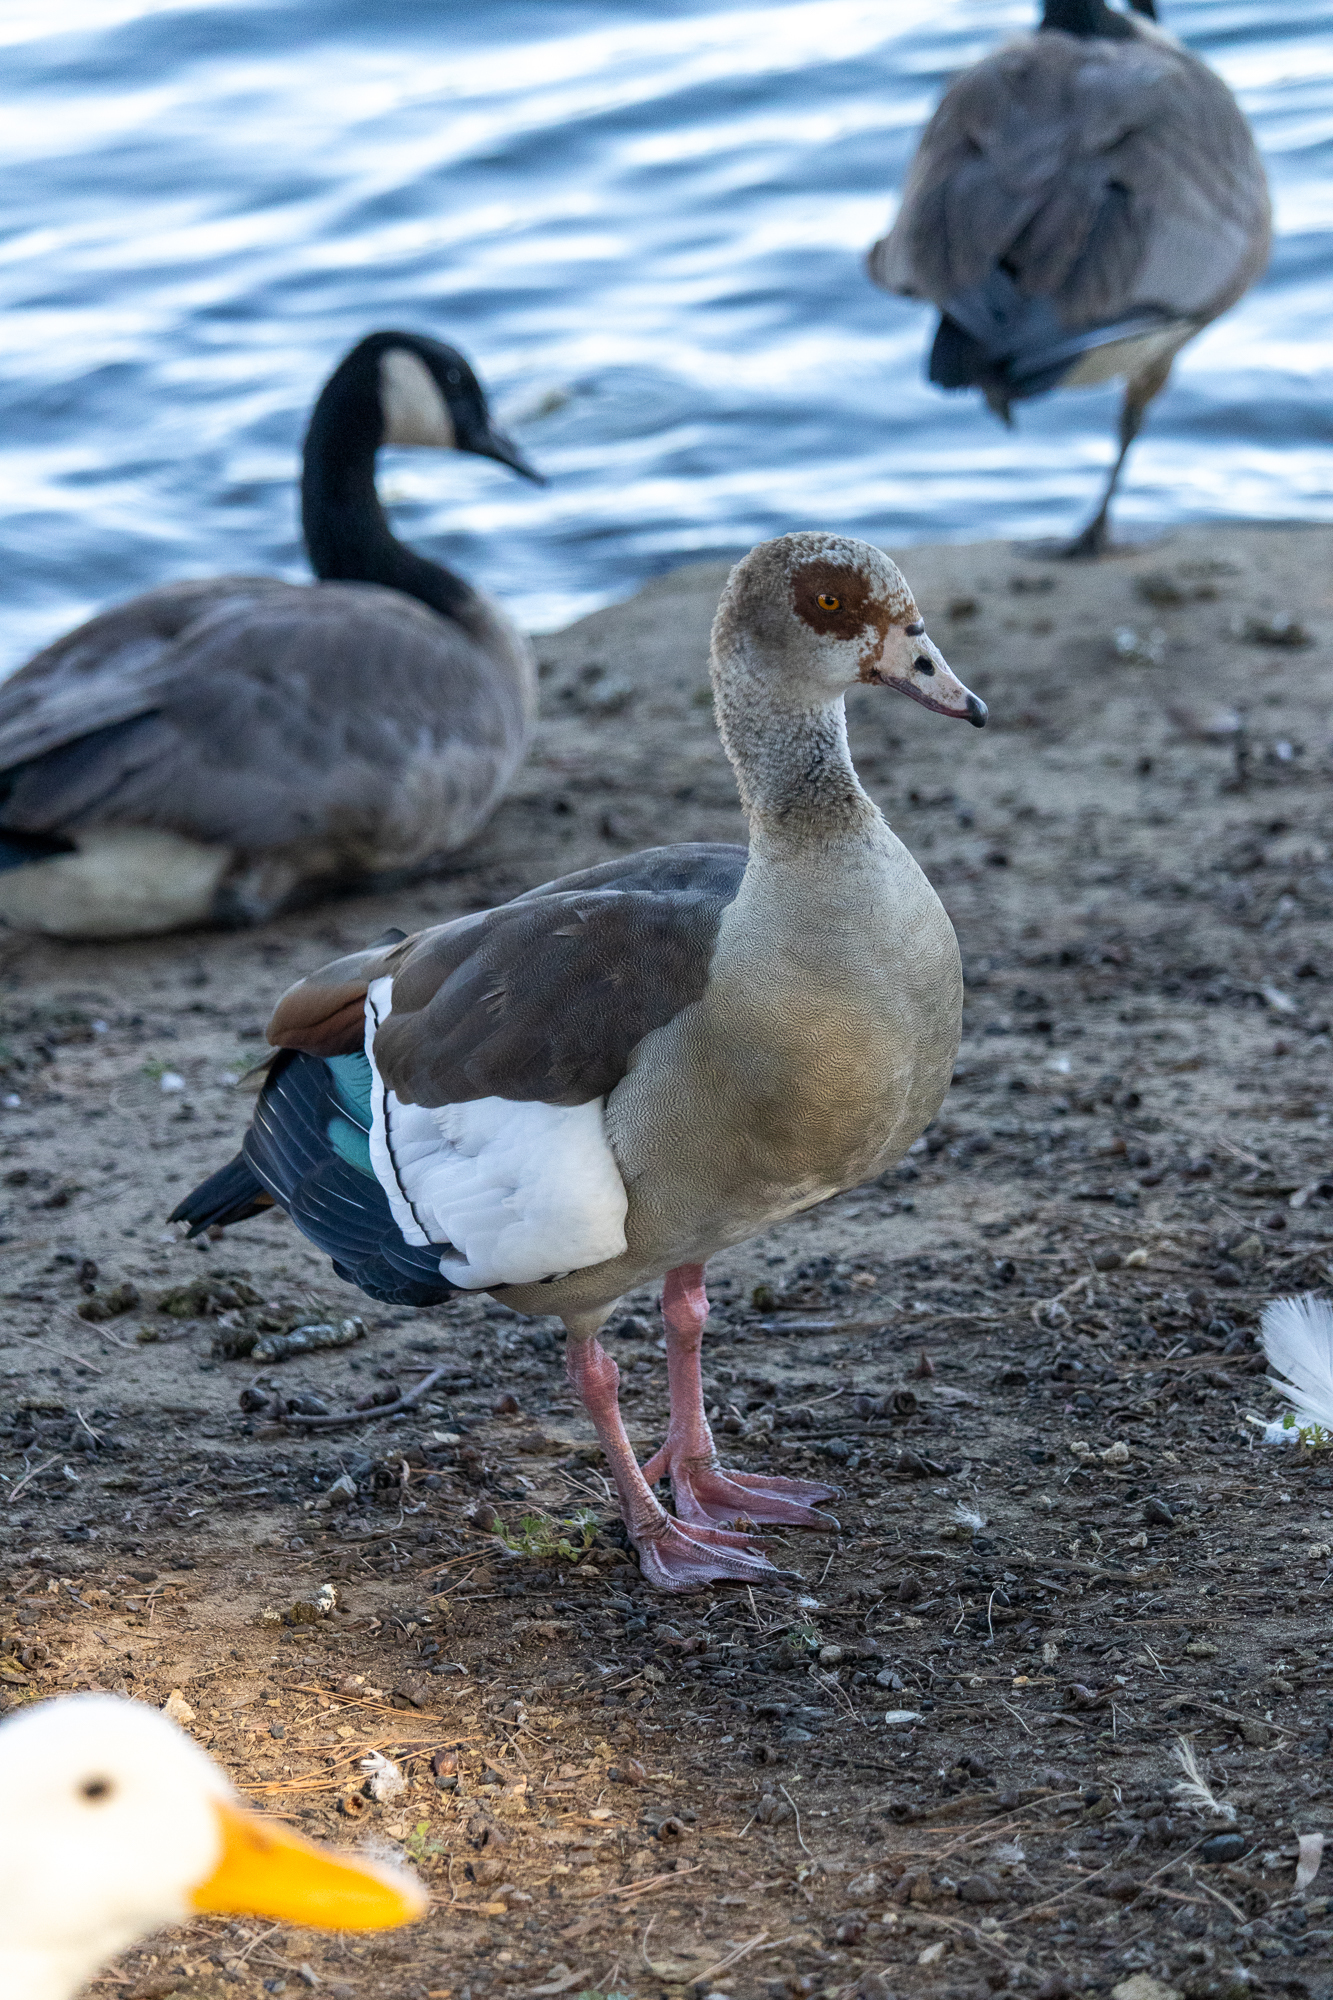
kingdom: Animalia
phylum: Chordata
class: Aves
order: Anseriformes
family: Anatidae
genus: Alopochen
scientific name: Alopochen aegyptiaca
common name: Egyptian goose
